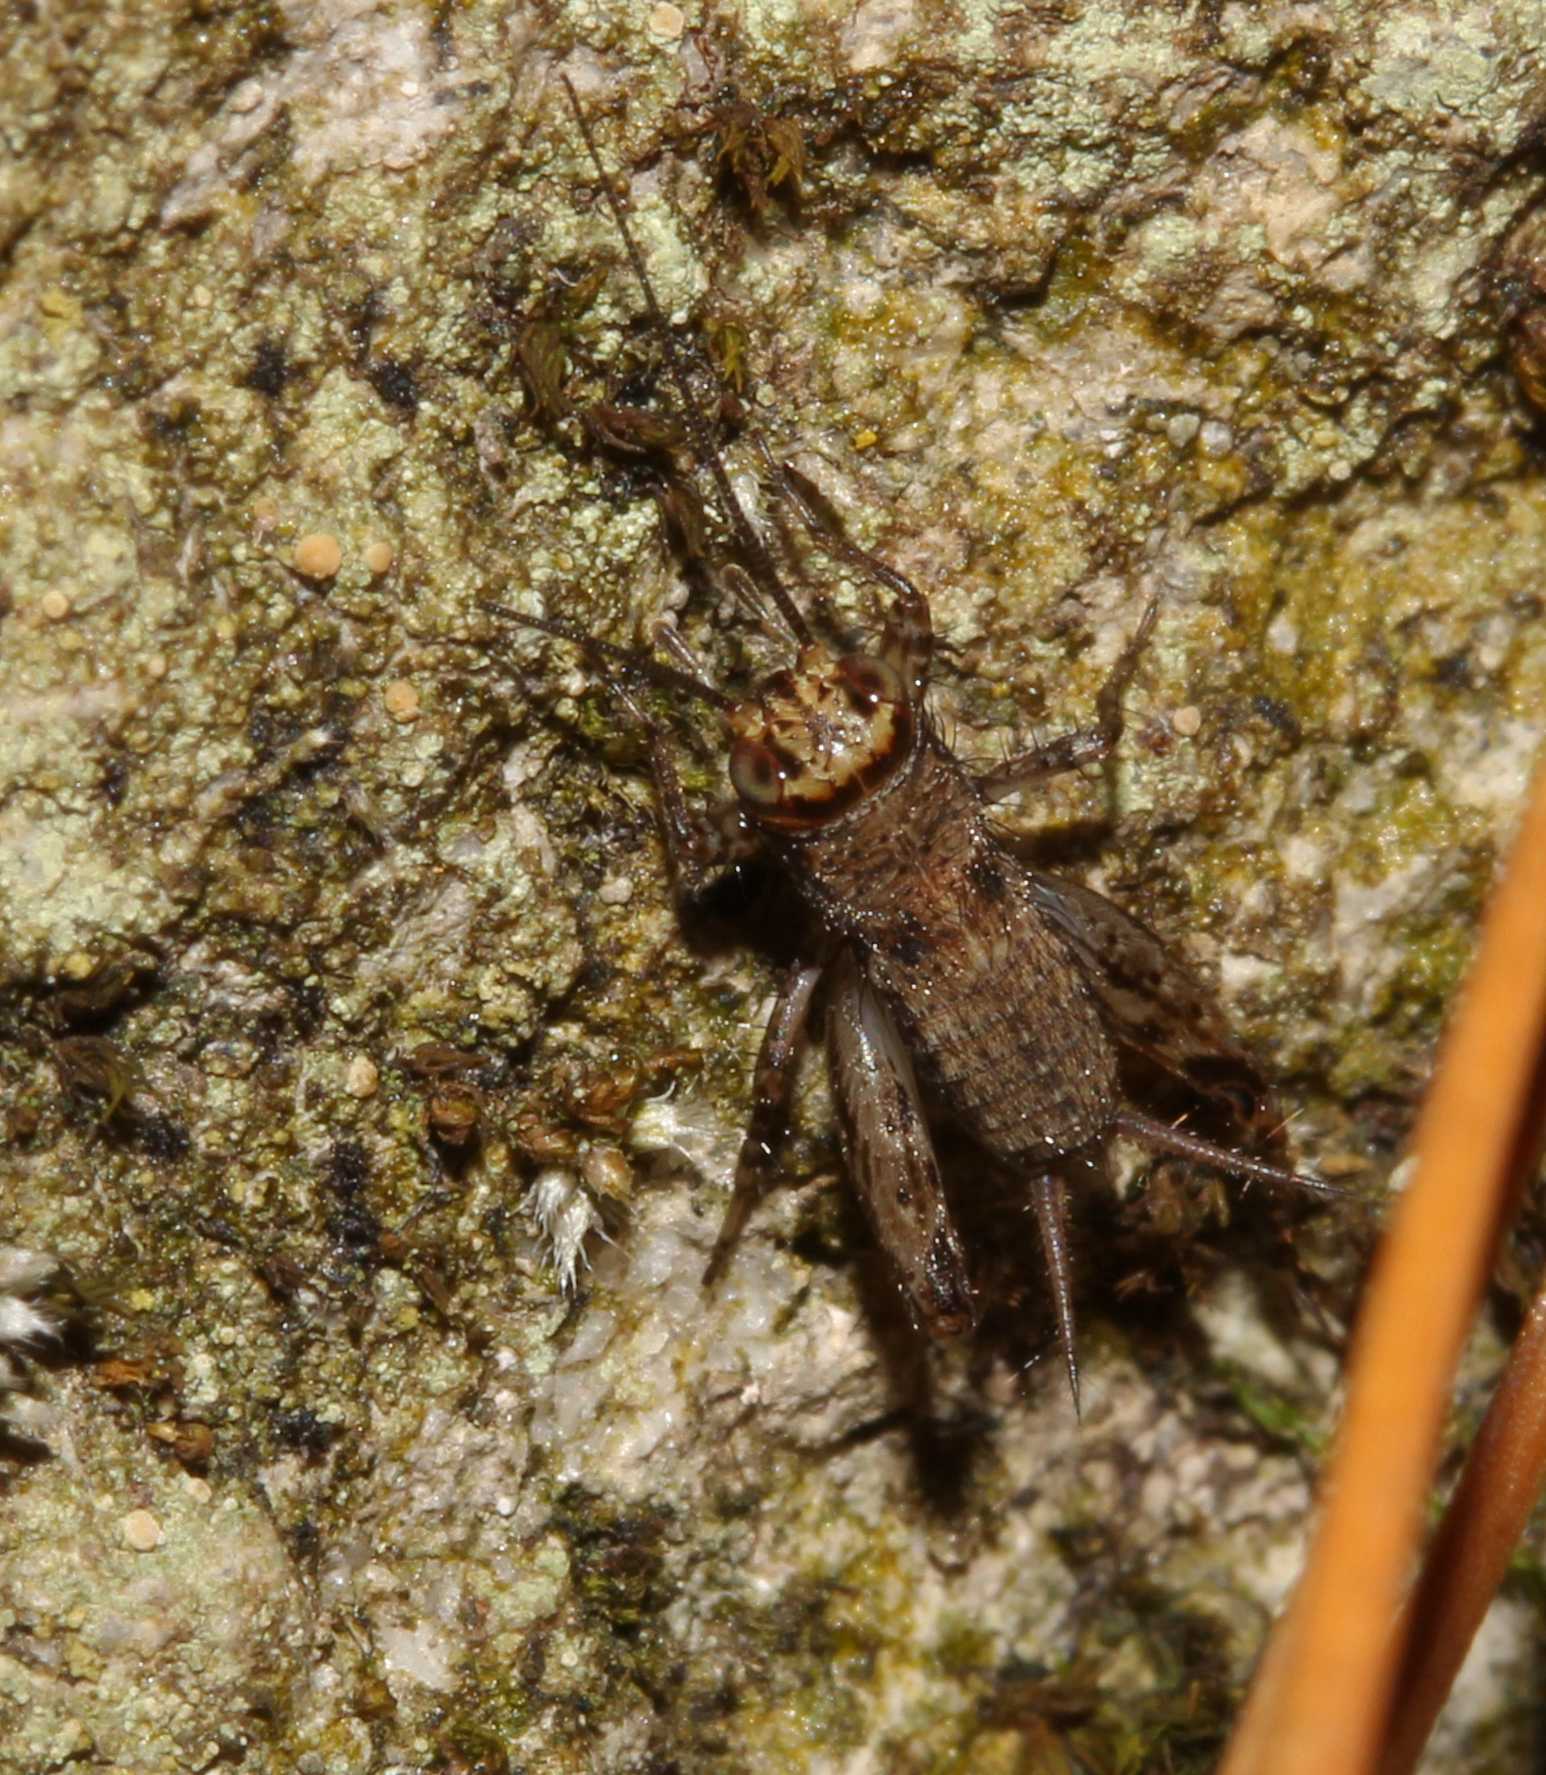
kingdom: Animalia
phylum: Arthropoda
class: Insecta
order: Orthoptera
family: Nemobiidae
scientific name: Nemobiidae
